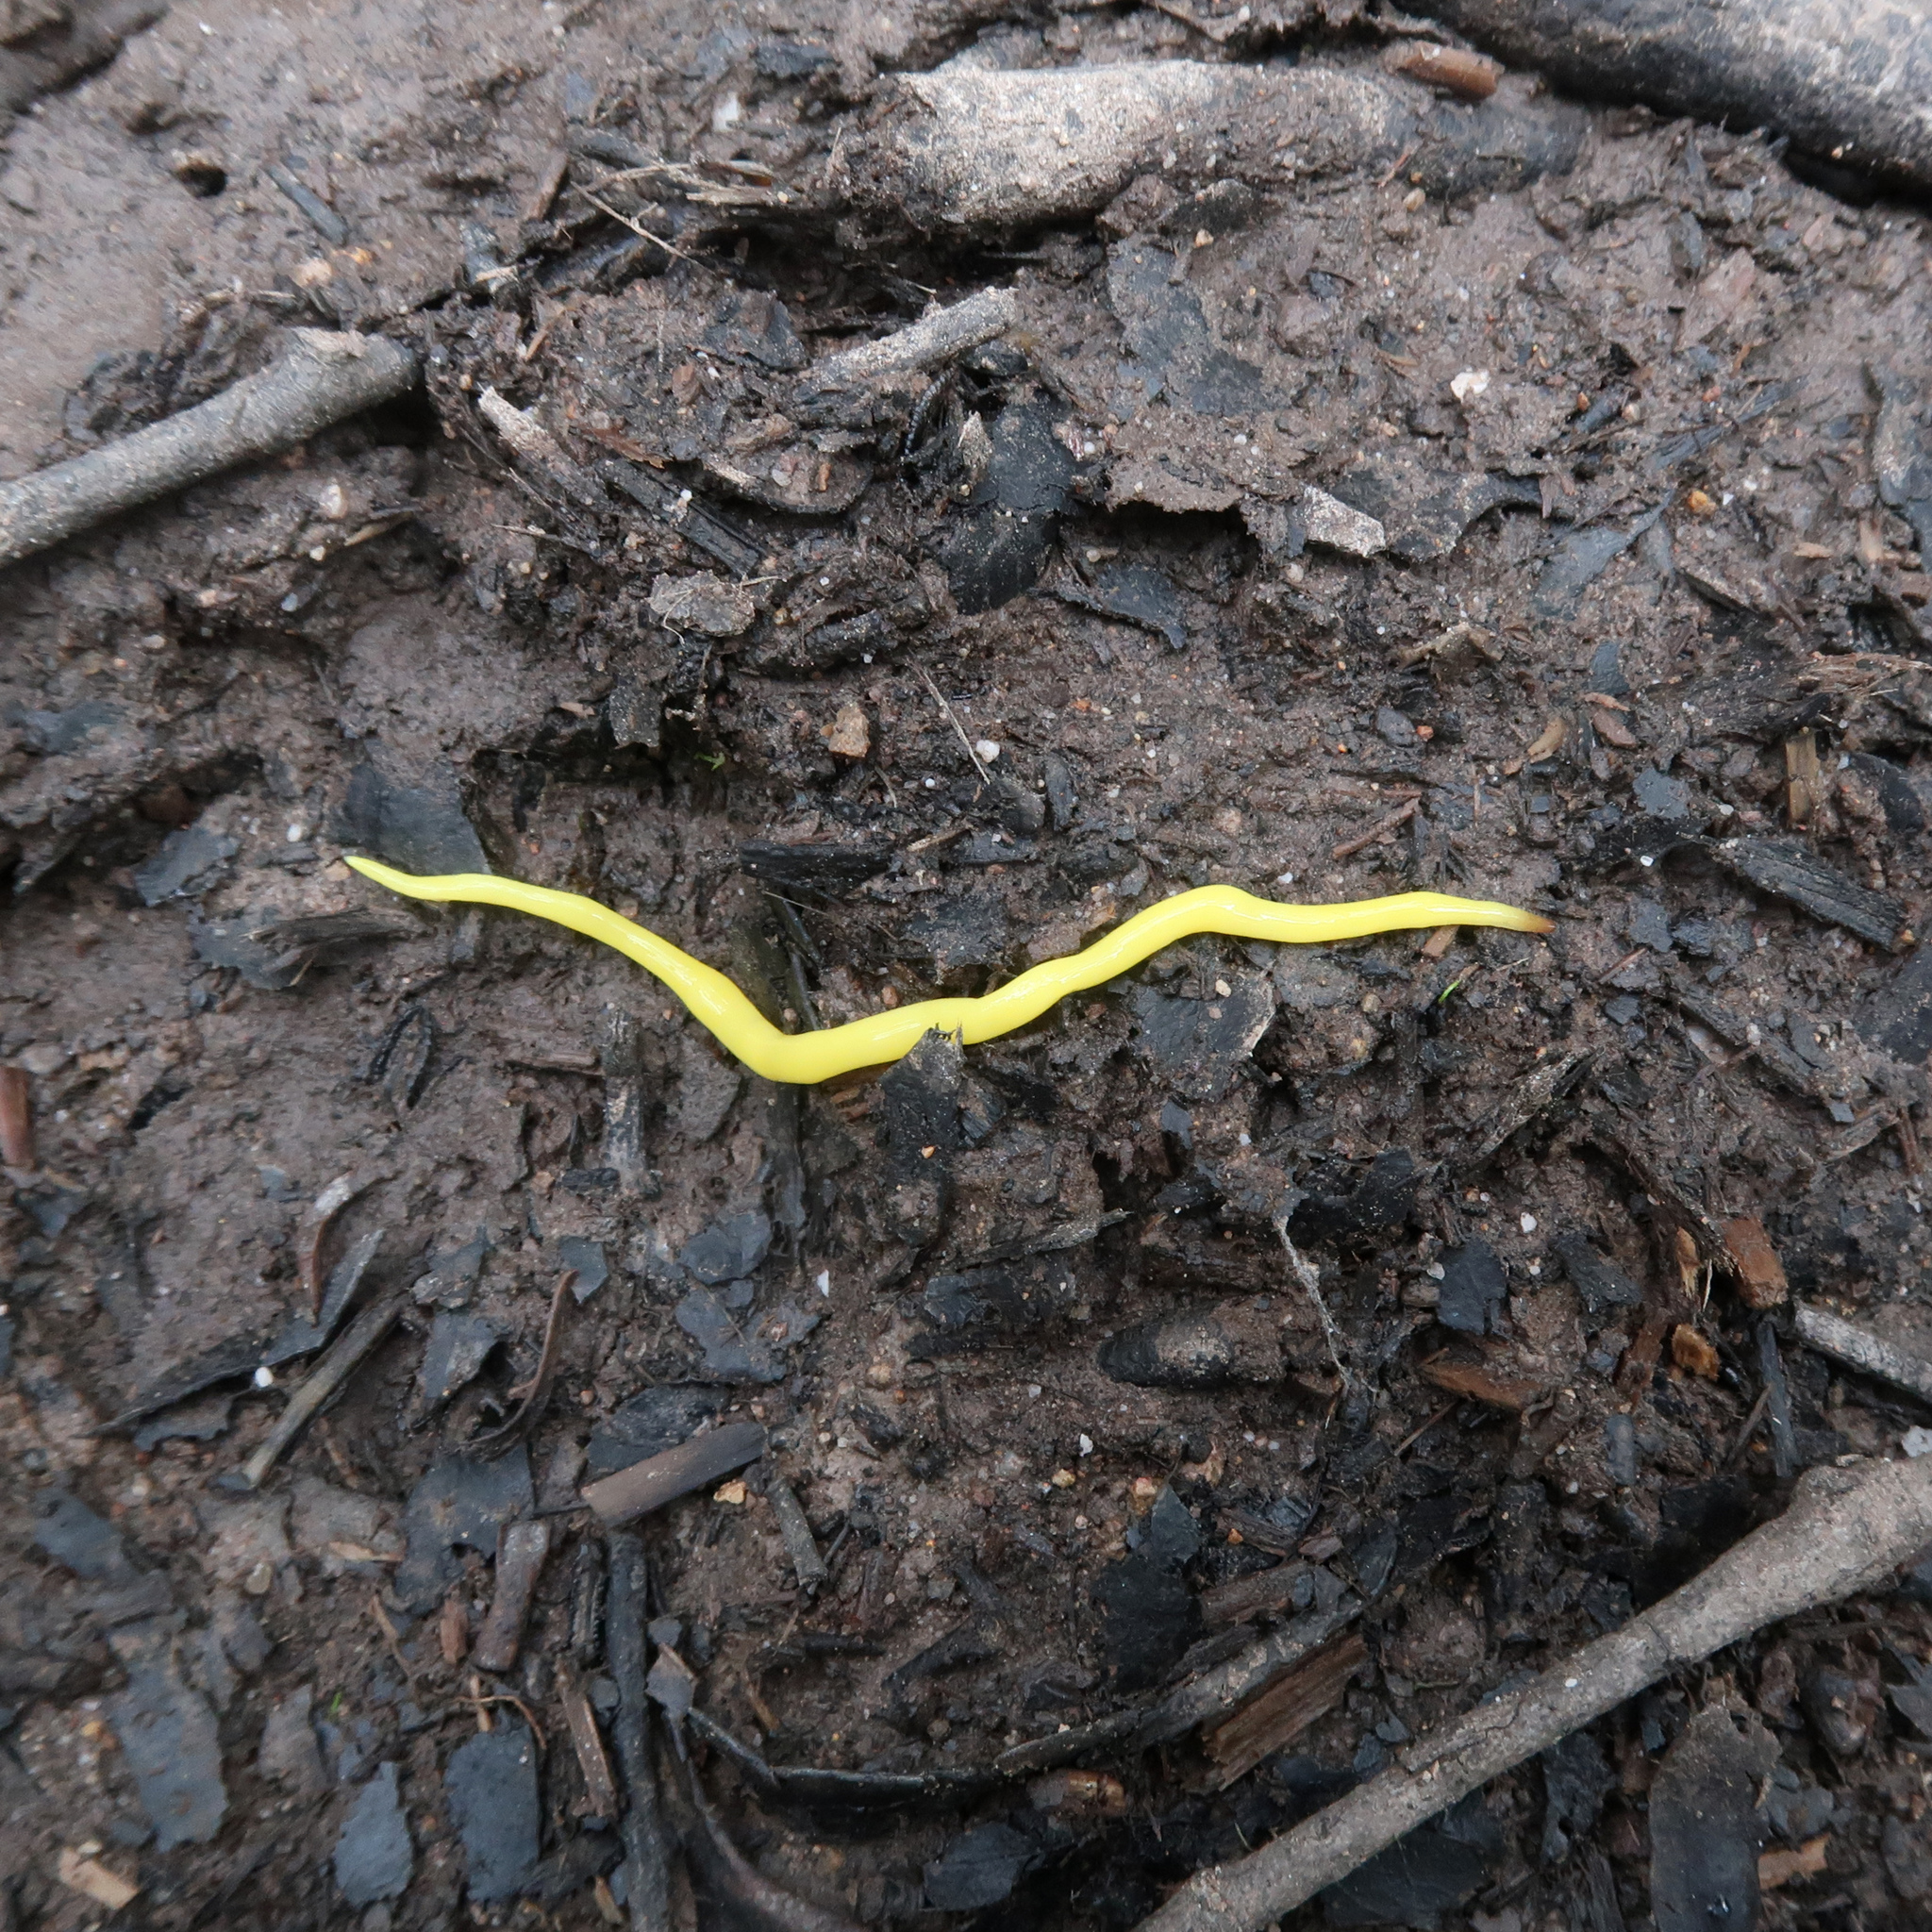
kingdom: Animalia
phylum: Platyhelminthes
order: Tricladida
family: Geoplanidae
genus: Fletchamia
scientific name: Fletchamia sugdeni
